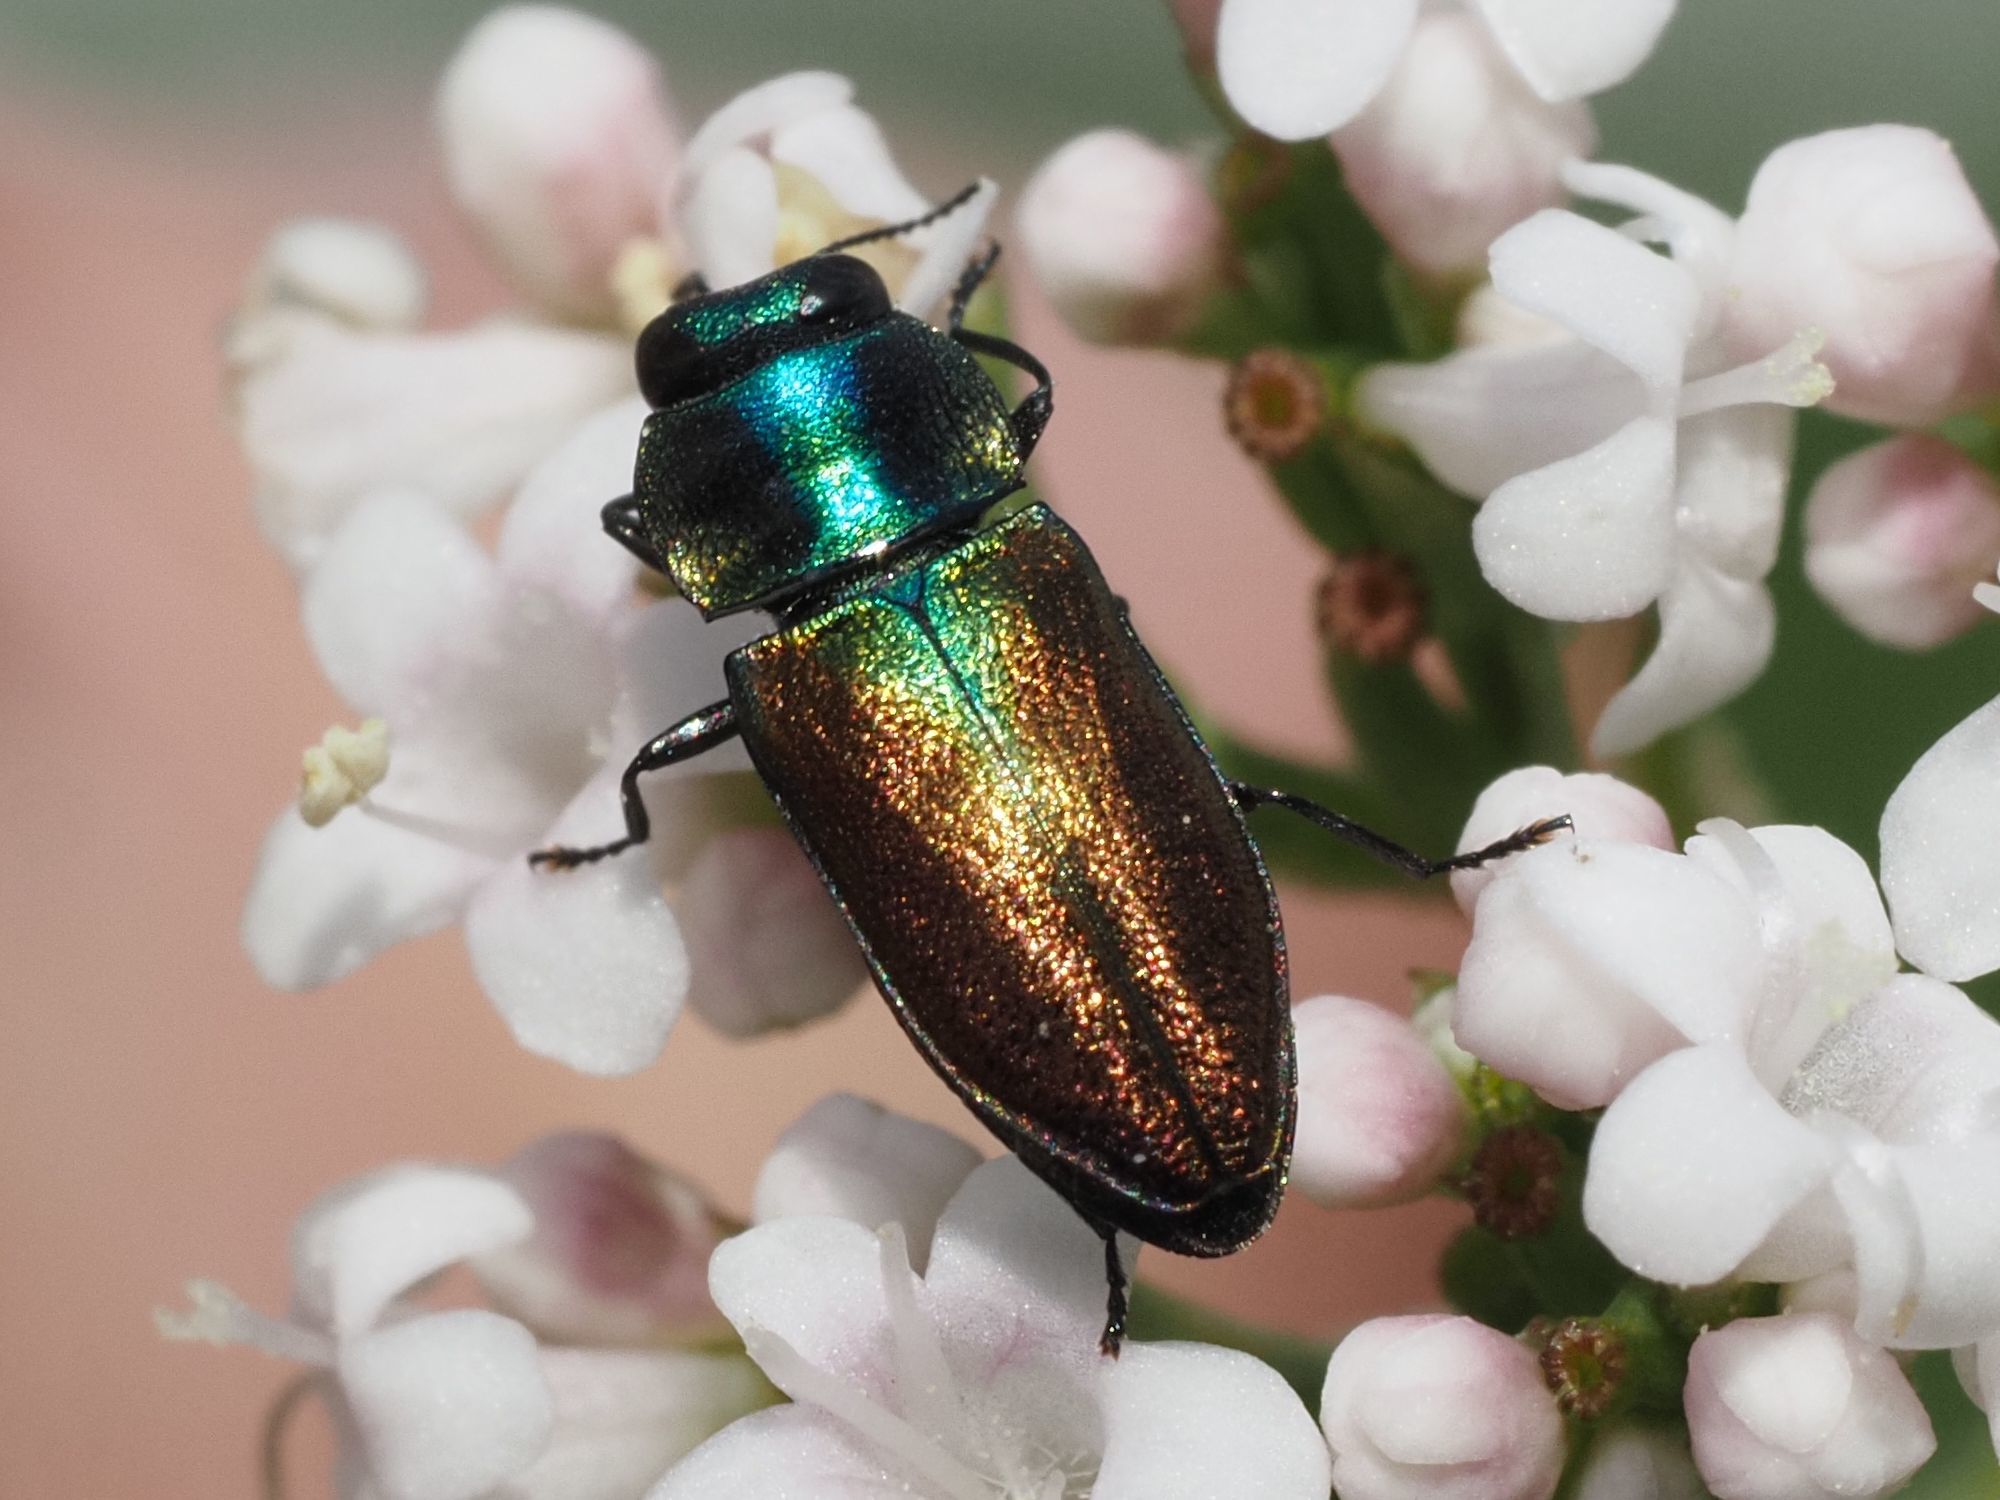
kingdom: Animalia
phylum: Arthropoda
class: Insecta
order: Coleoptera
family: Buprestidae
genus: Anthaxia
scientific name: Anthaxia podolica
